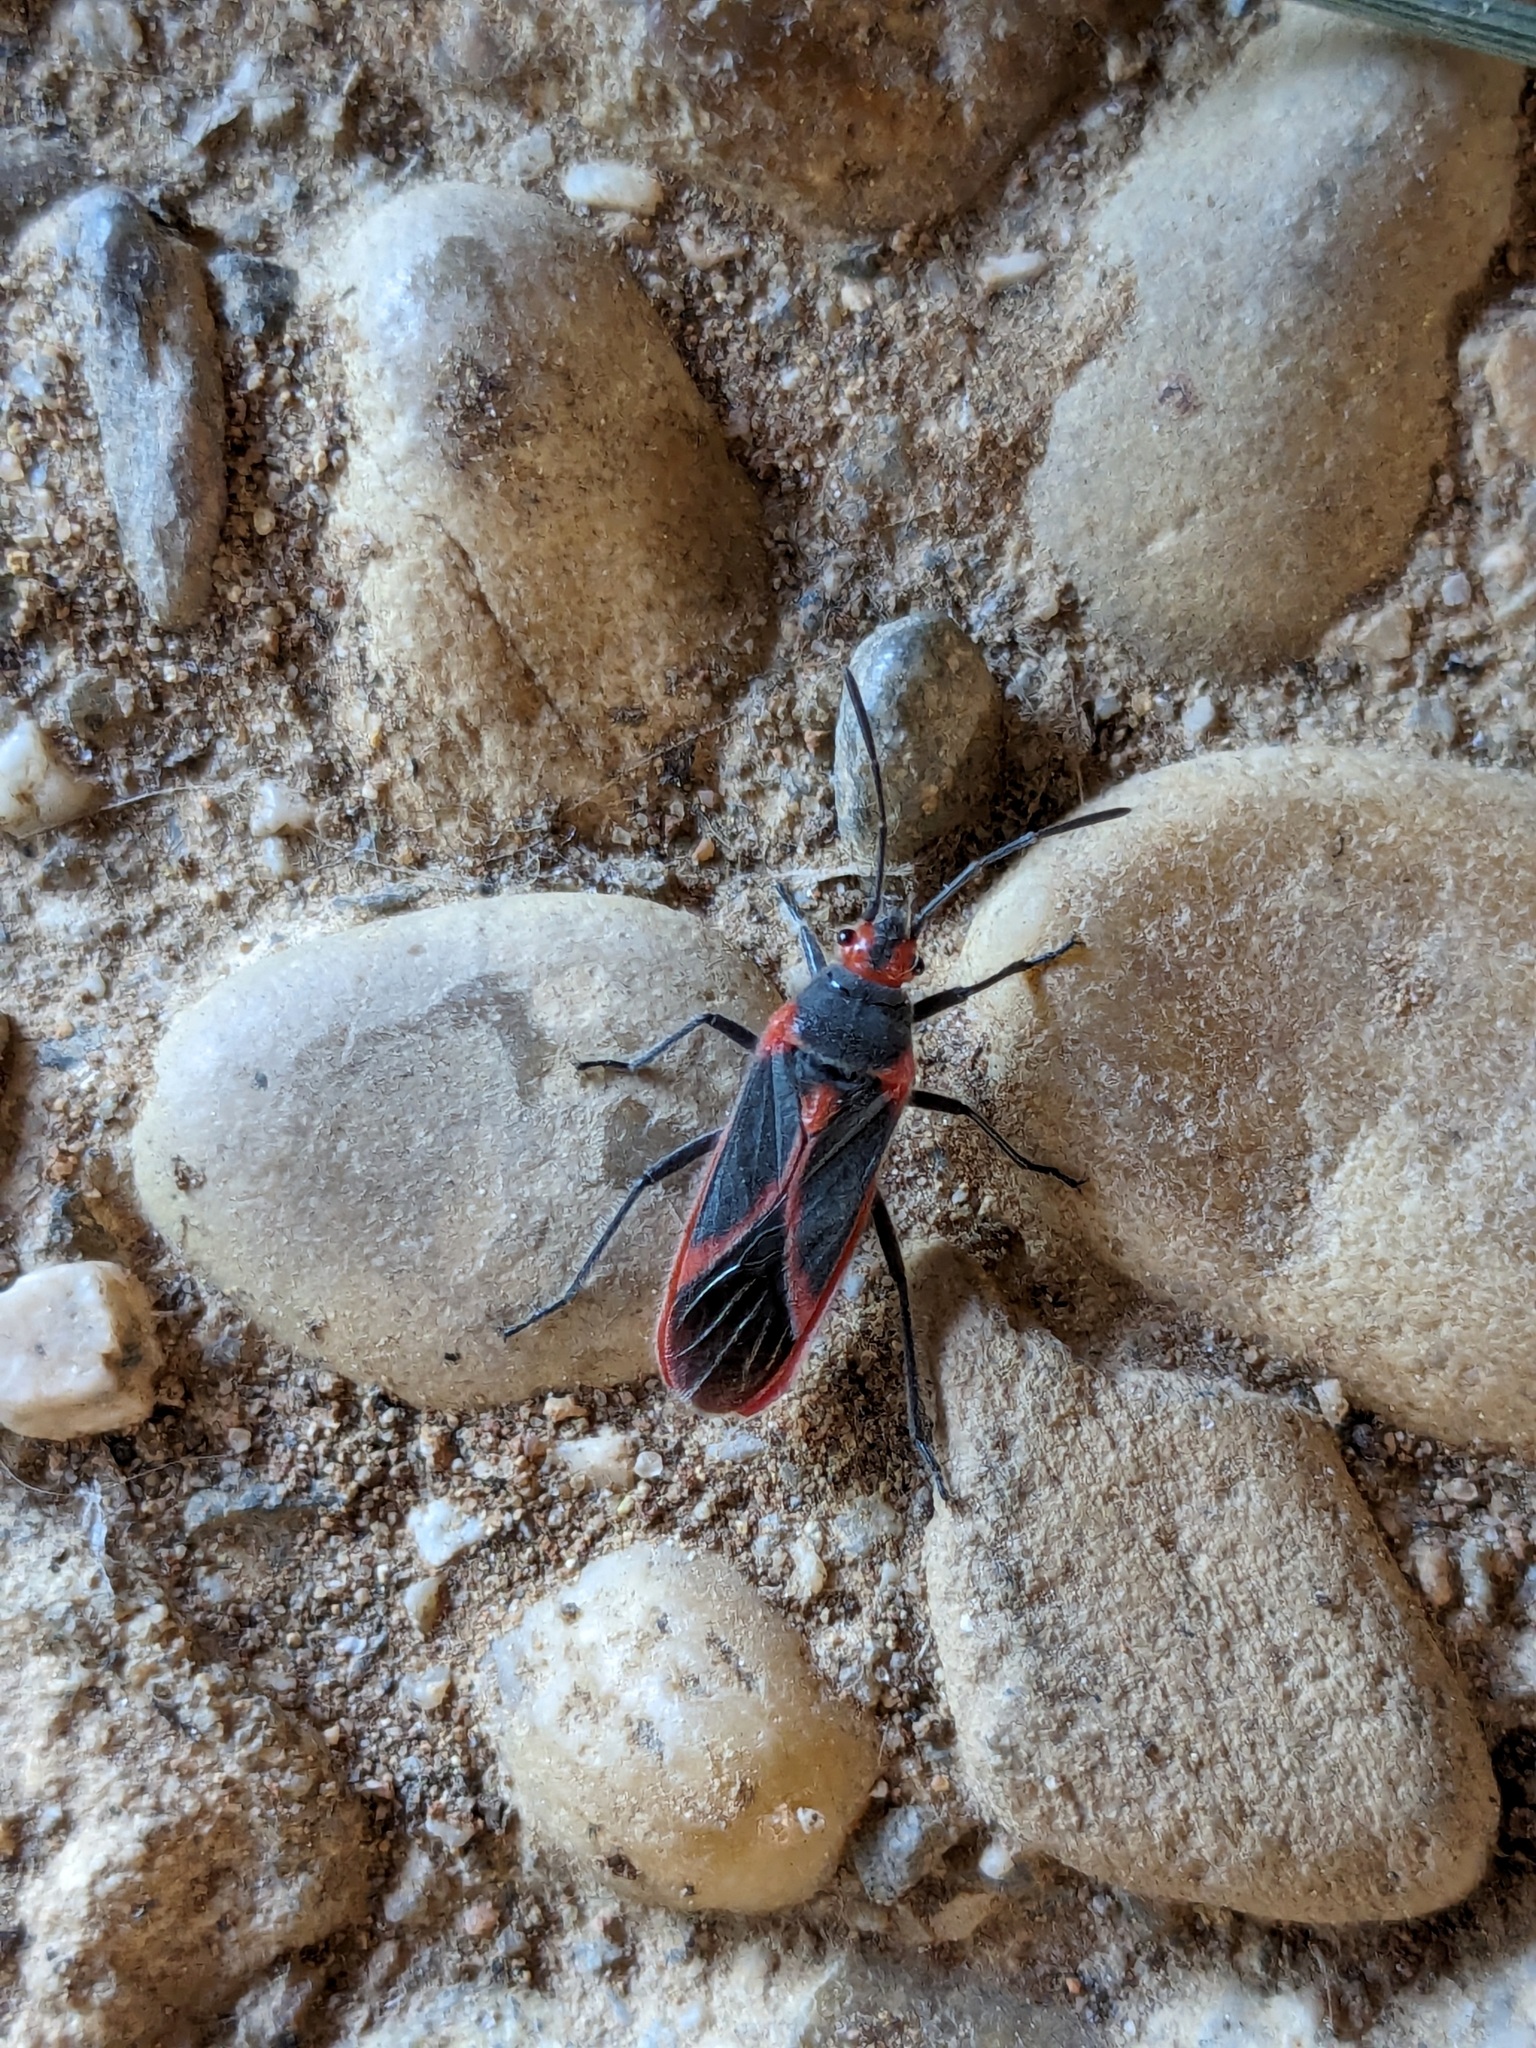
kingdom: Animalia
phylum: Arthropoda
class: Insecta
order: Hemiptera
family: Lygaeidae
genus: Caenocoris
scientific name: Caenocoris nerii
